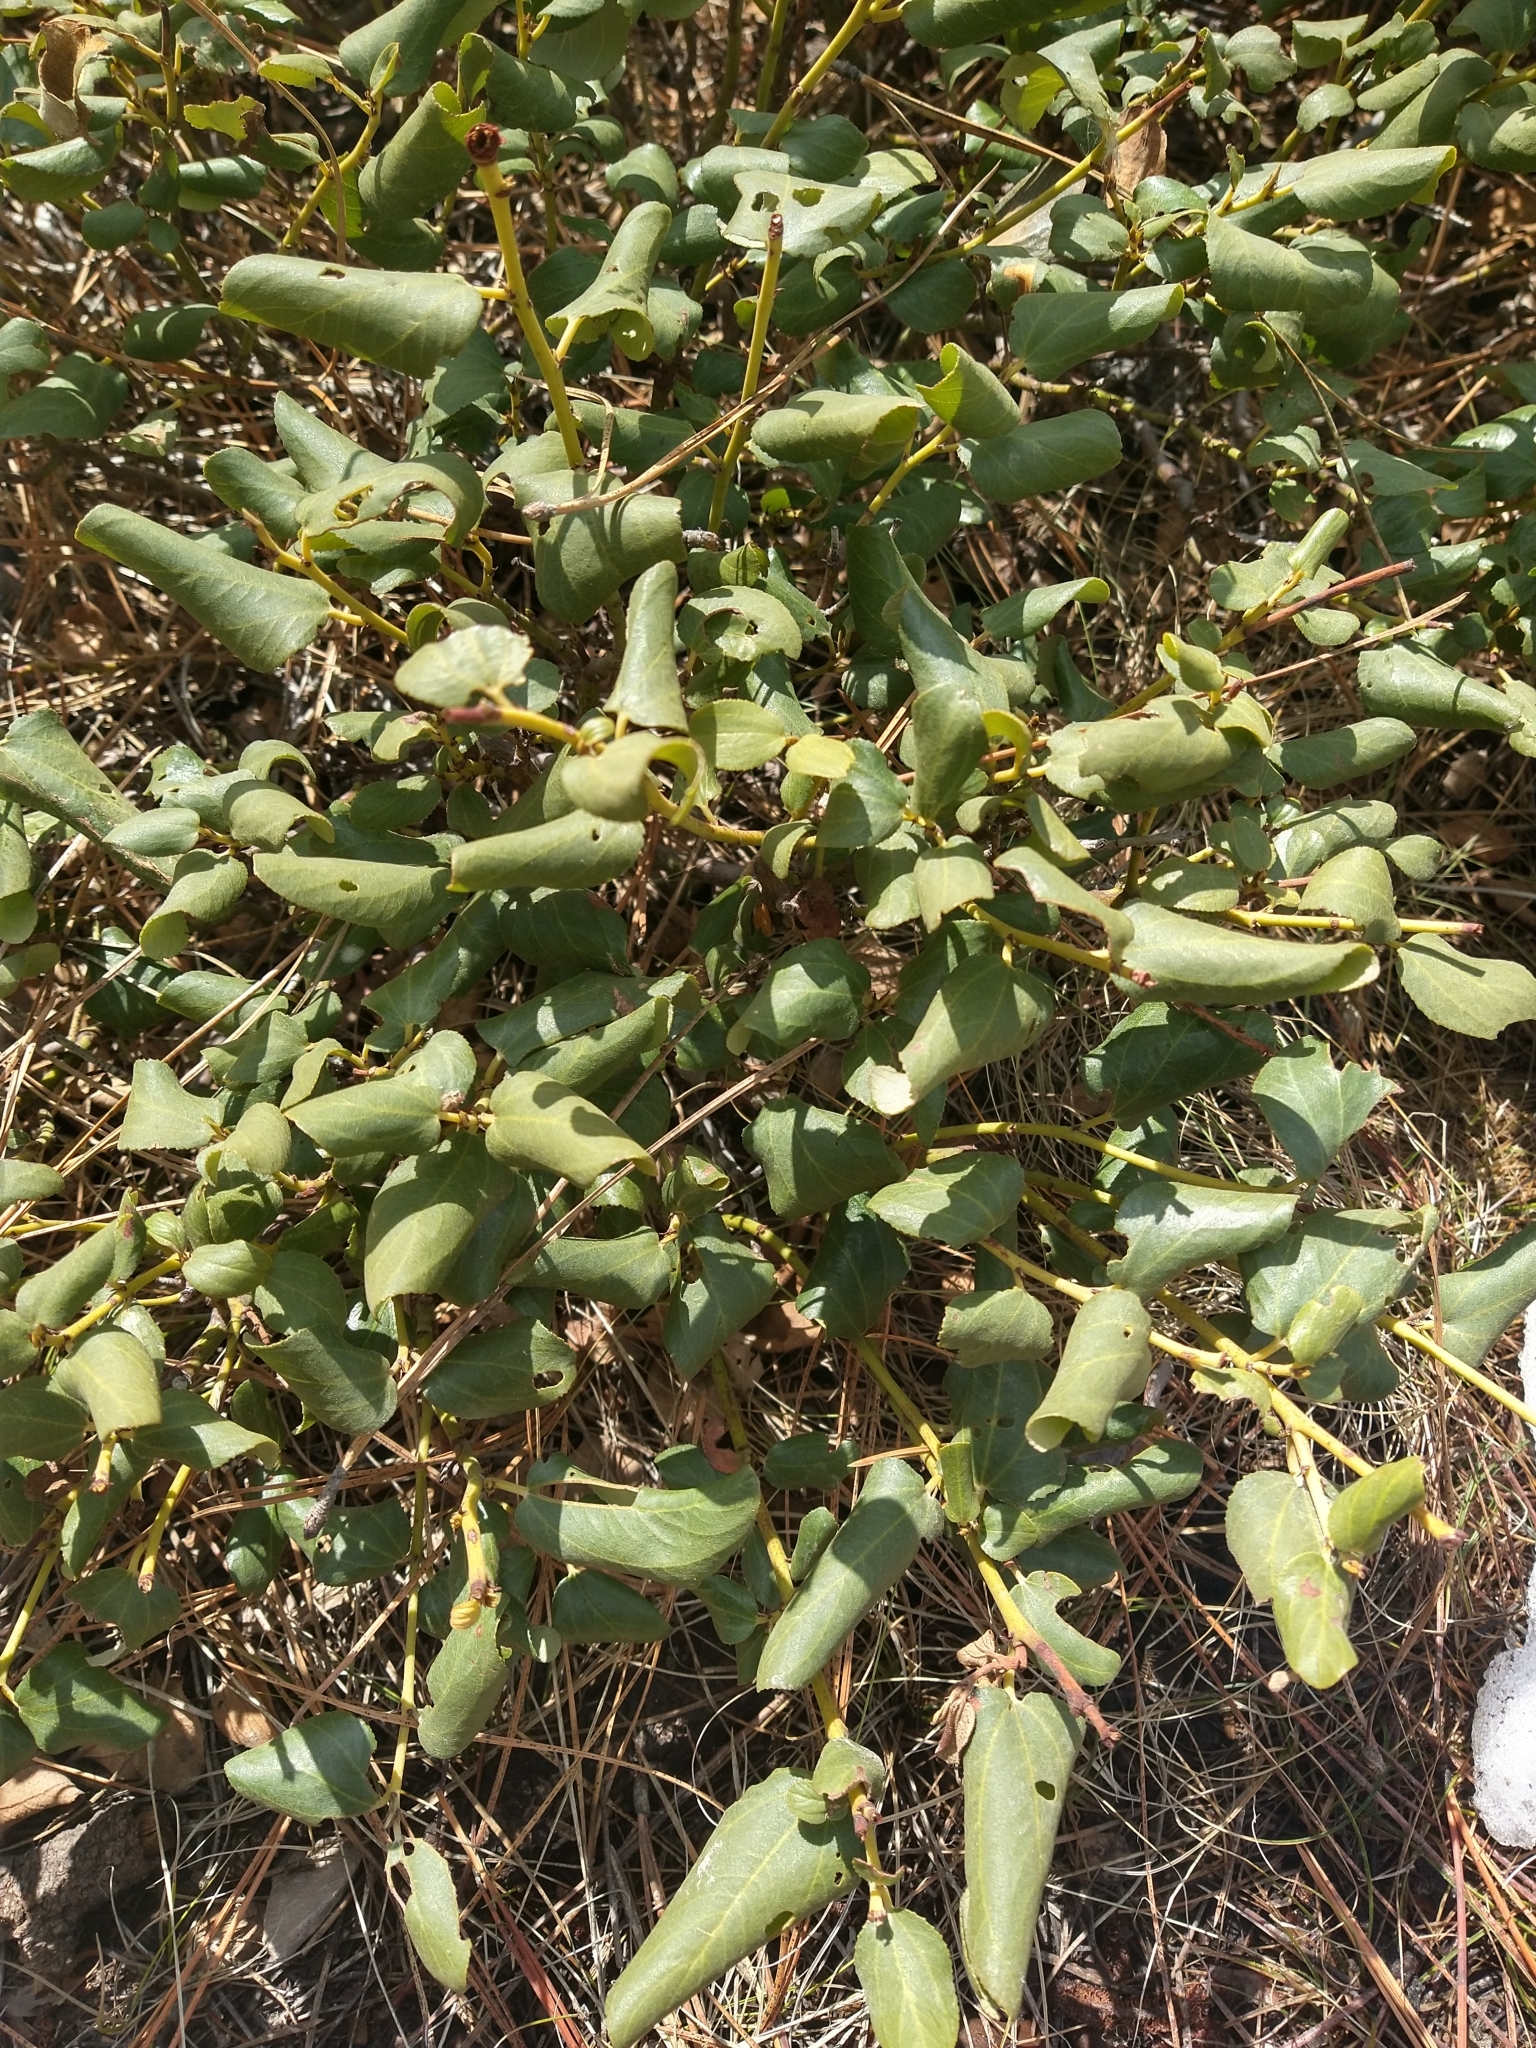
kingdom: Plantae
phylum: Tracheophyta
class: Magnoliopsida
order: Rosales
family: Rhamnaceae
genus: Ceanothus
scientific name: Ceanothus velutinus
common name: Snowbrush
